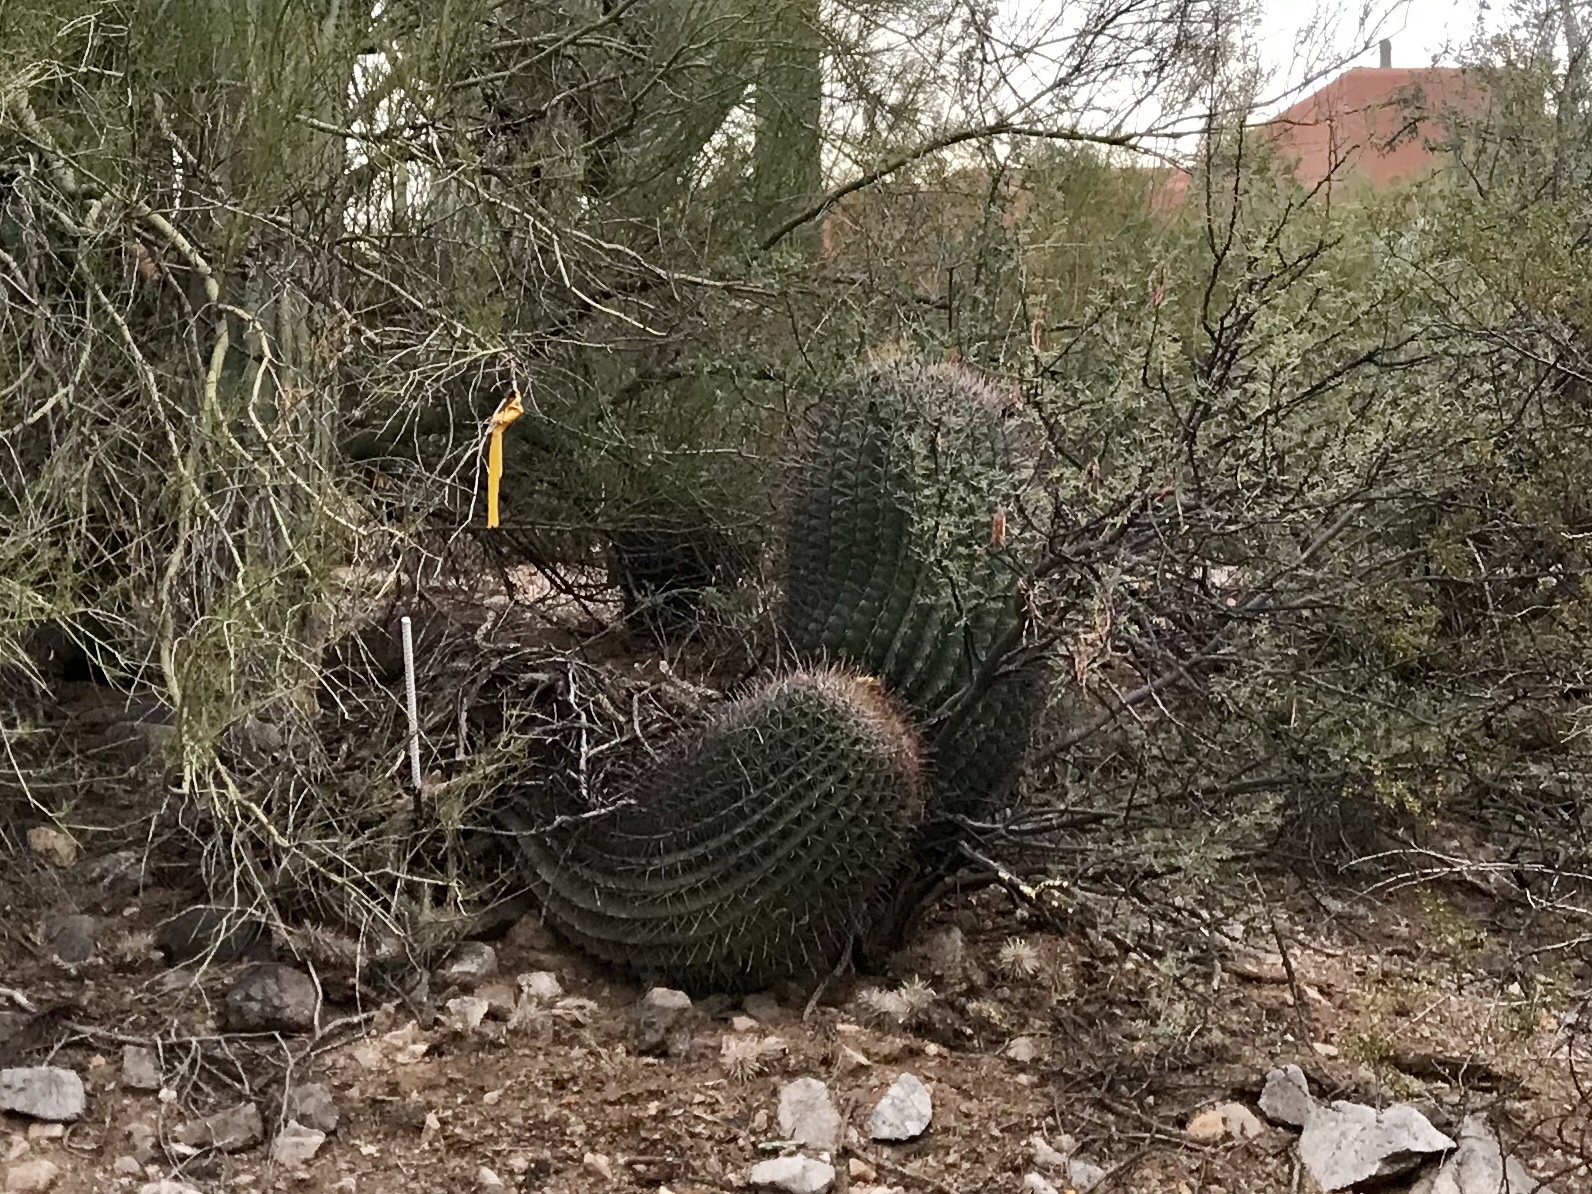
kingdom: Plantae
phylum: Tracheophyta
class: Magnoliopsida
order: Caryophyllales
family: Cactaceae
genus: Ferocactus
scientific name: Ferocactus wislizeni
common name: Candy barrel cactus
